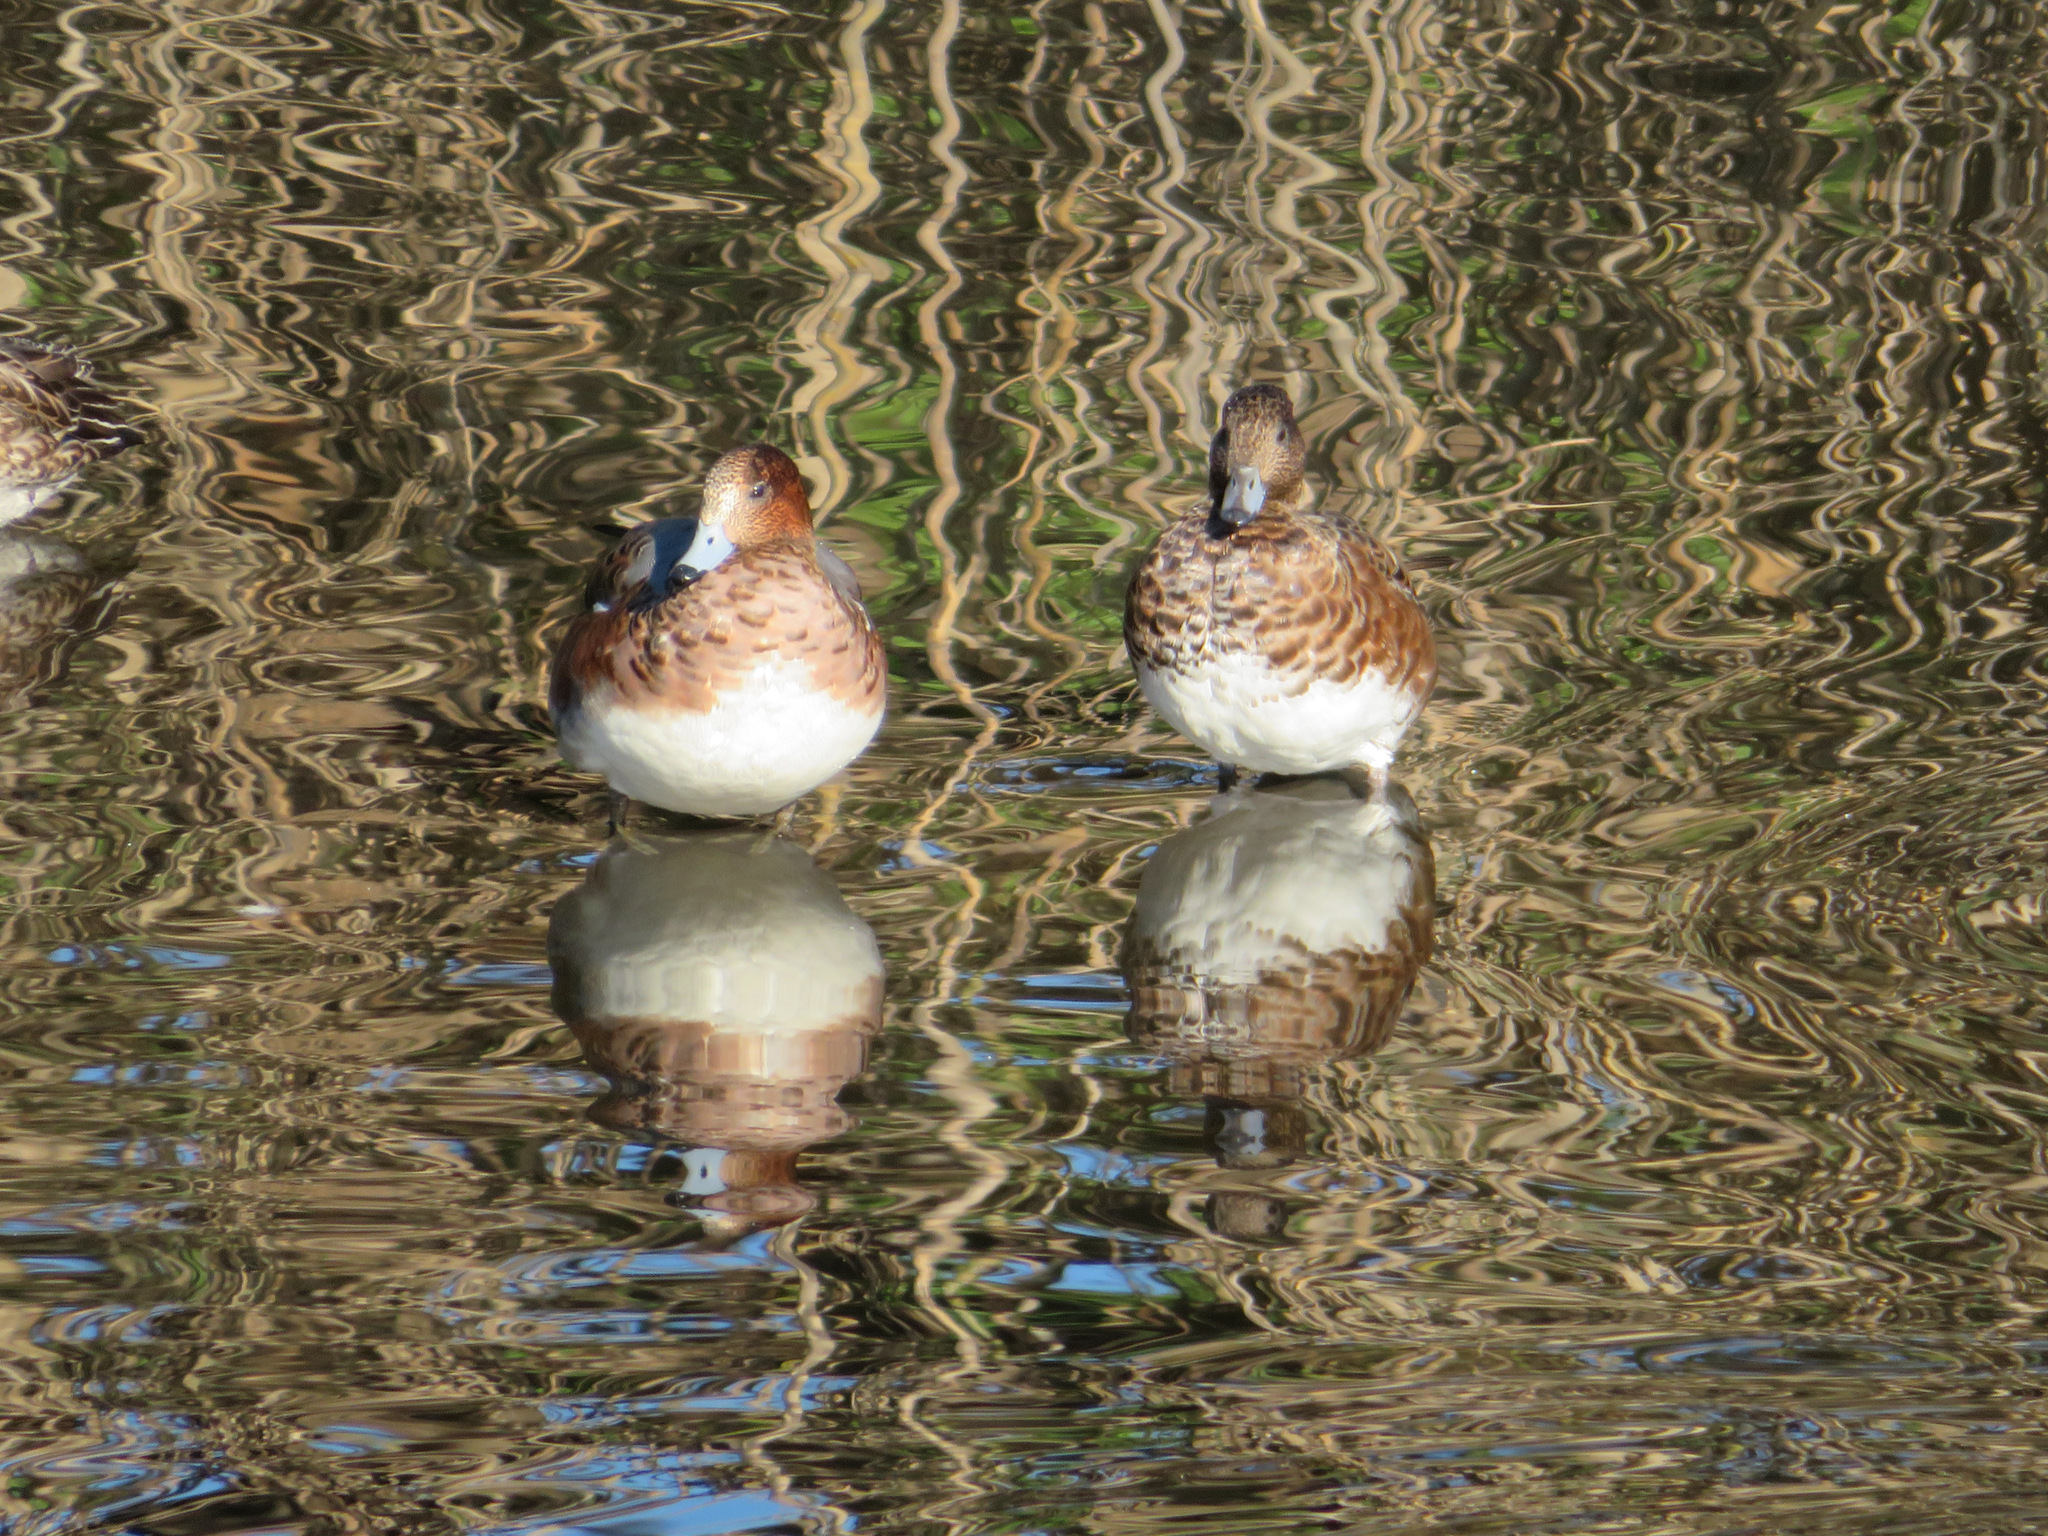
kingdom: Animalia
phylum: Chordata
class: Aves
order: Anseriformes
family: Anatidae
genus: Mareca
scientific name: Mareca penelope
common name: Eurasian wigeon
